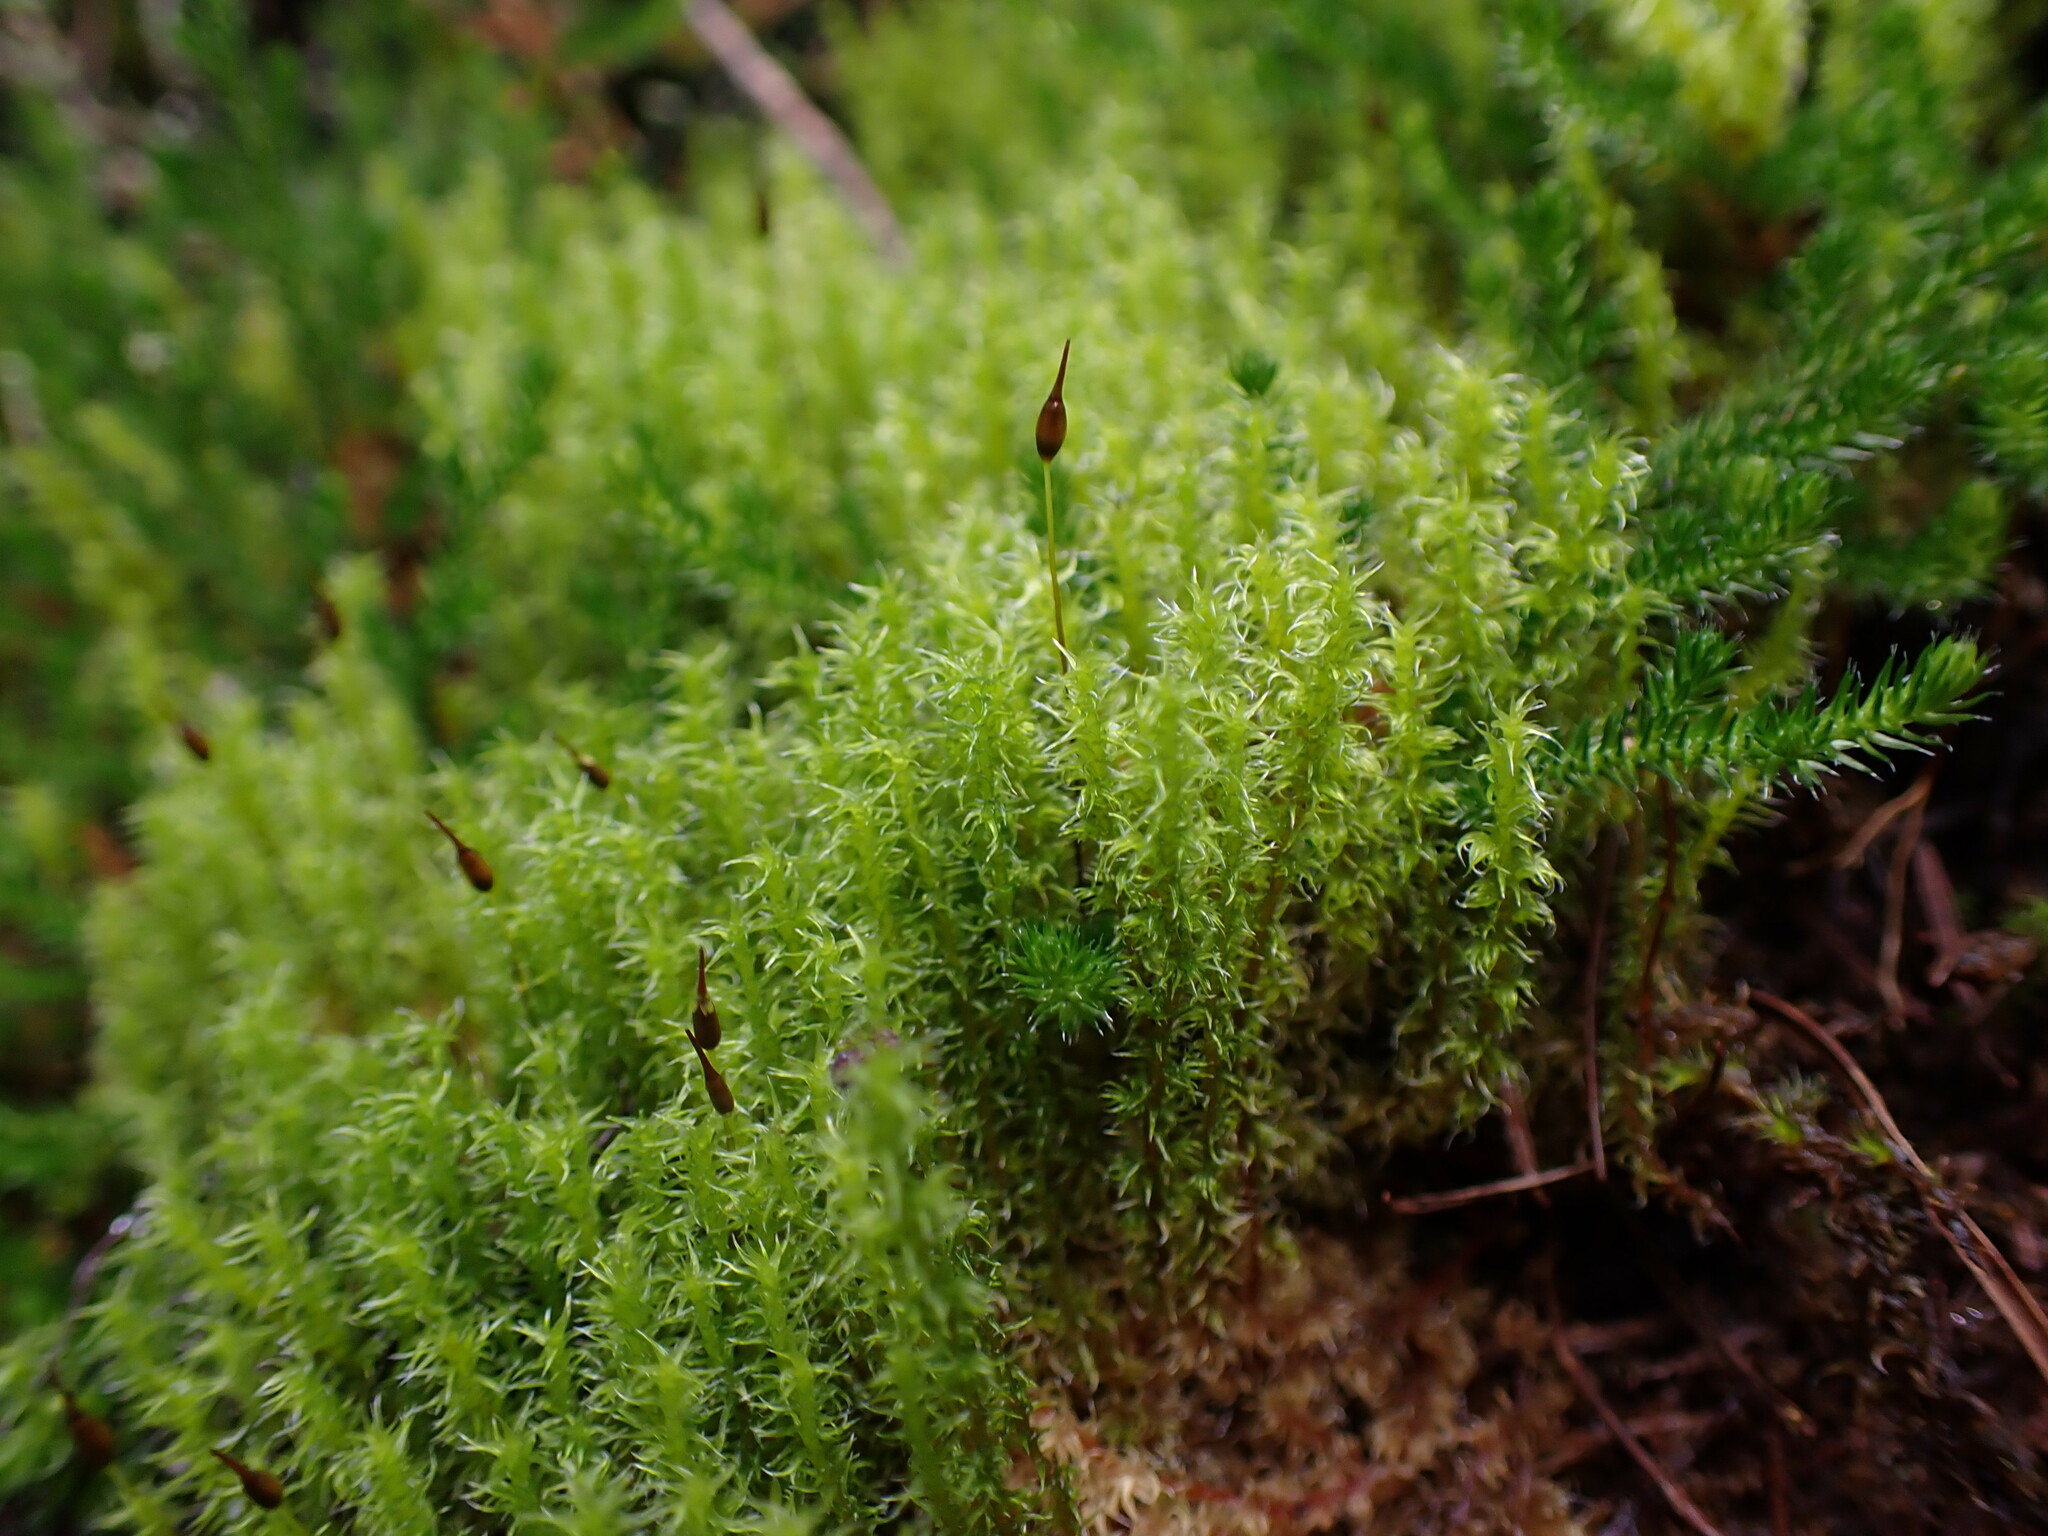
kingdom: Plantae
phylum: Bryophyta
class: Bryopsida
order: Grimmiales
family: Grimmiaceae
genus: Niphotrichum
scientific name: Niphotrichum elongatum
